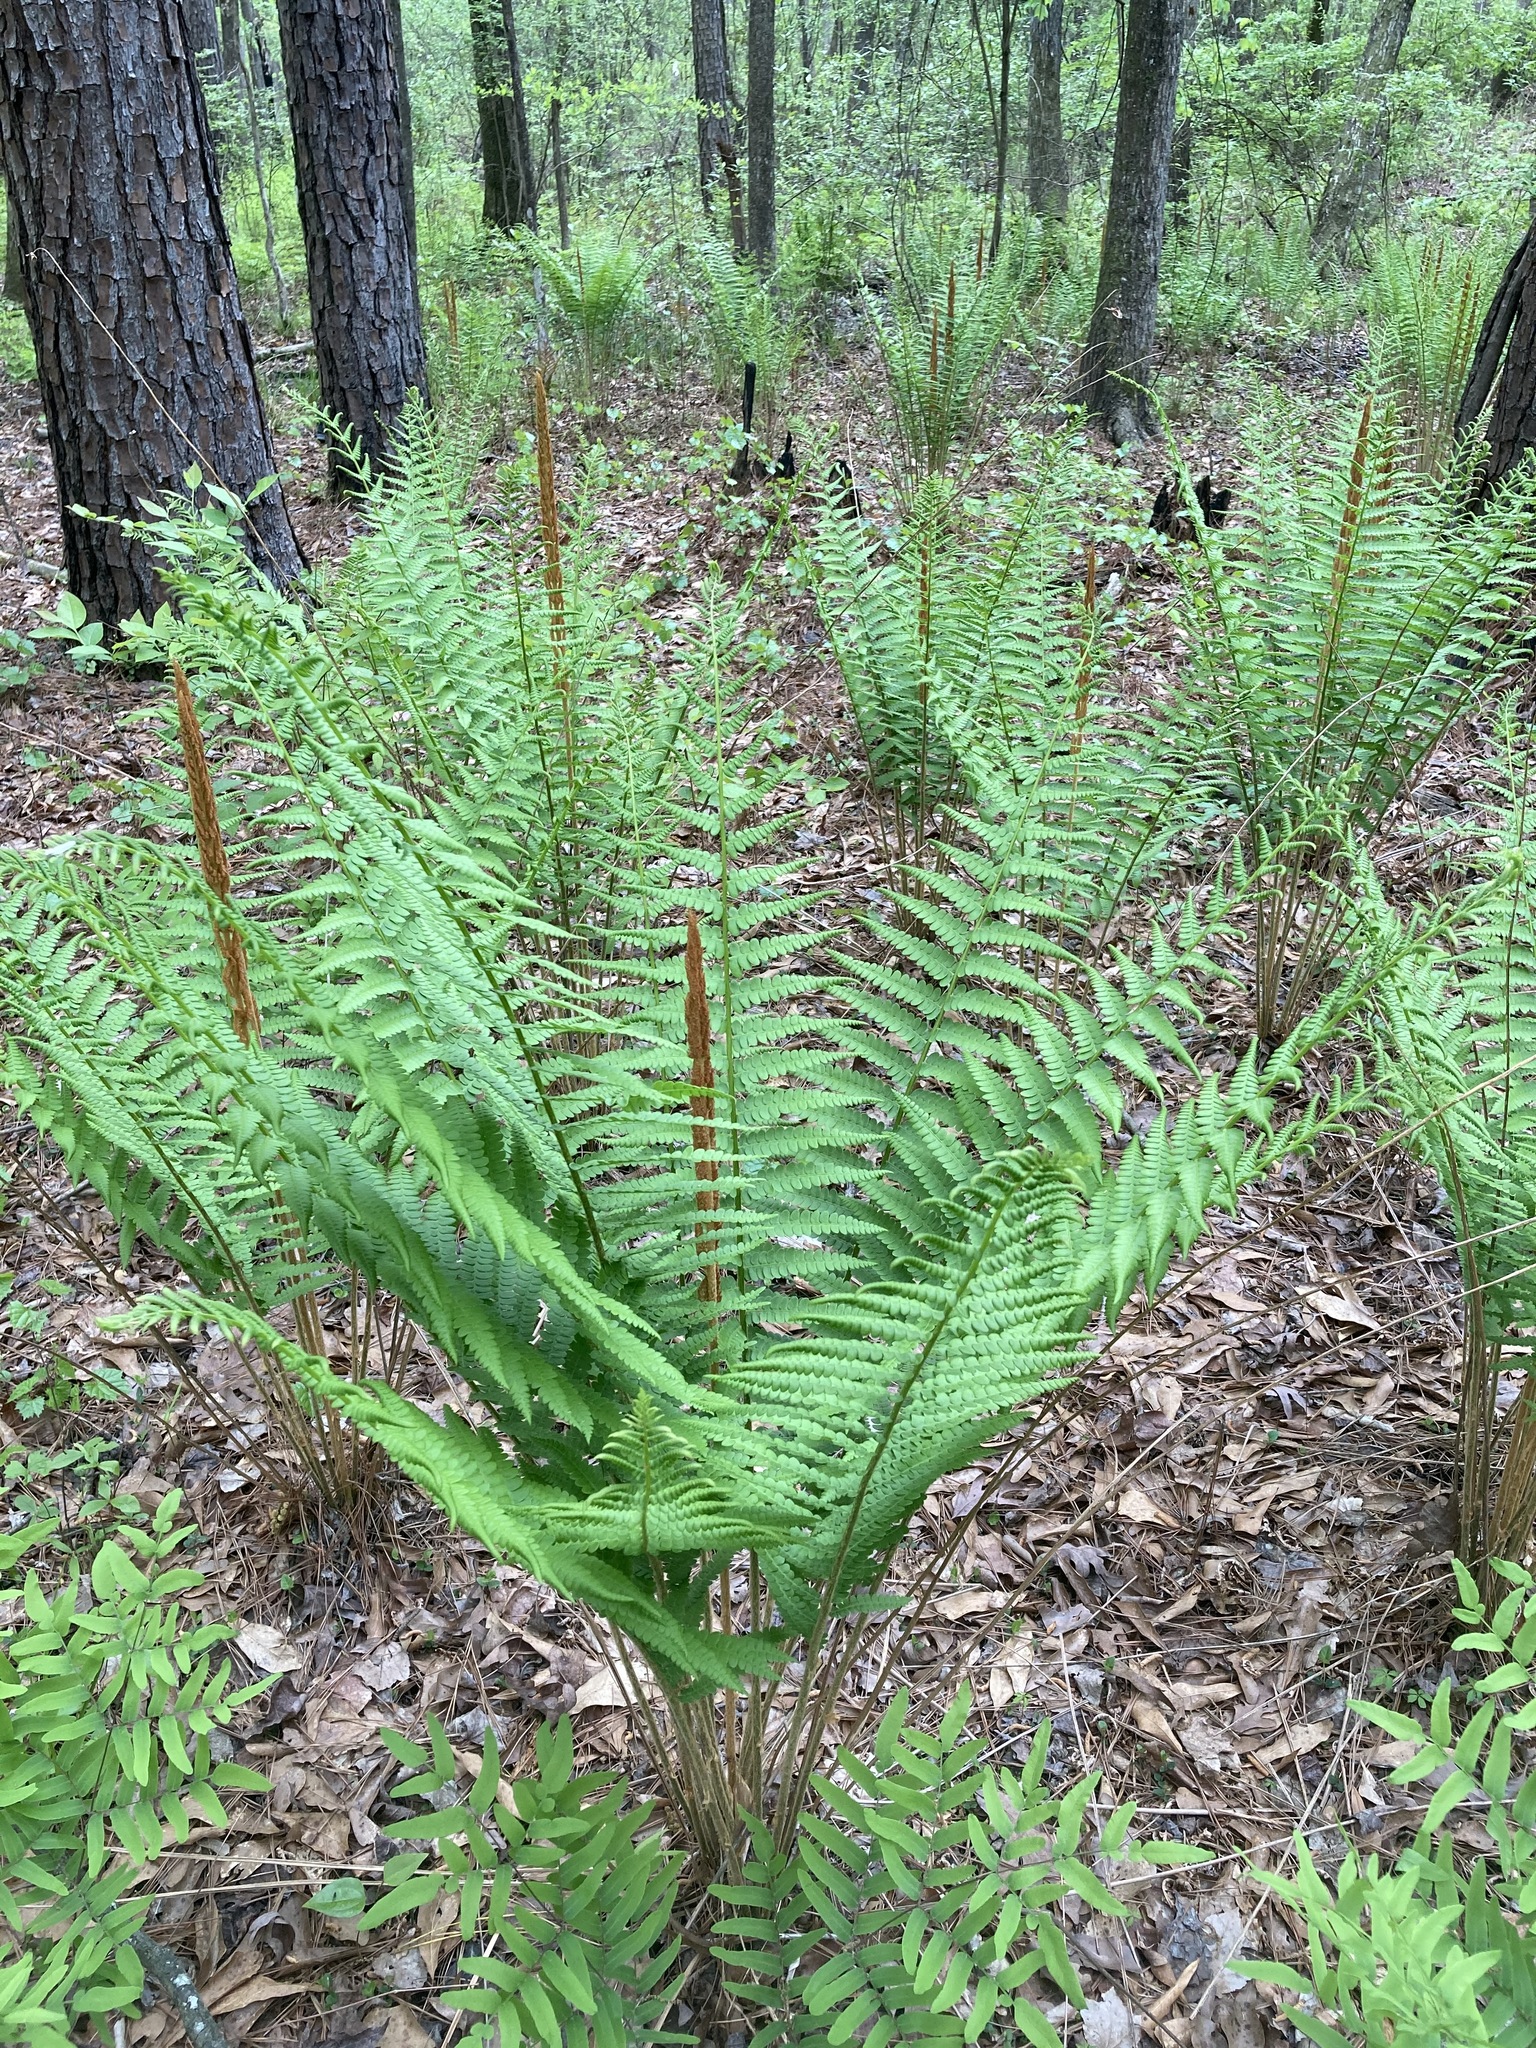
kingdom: Plantae
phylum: Tracheophyta
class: Polypodiopsida
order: Osmundales
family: Osmundaceae
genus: Osmundastrum
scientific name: Osmundastrum cinnamomeum
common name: Cinnamon fern
